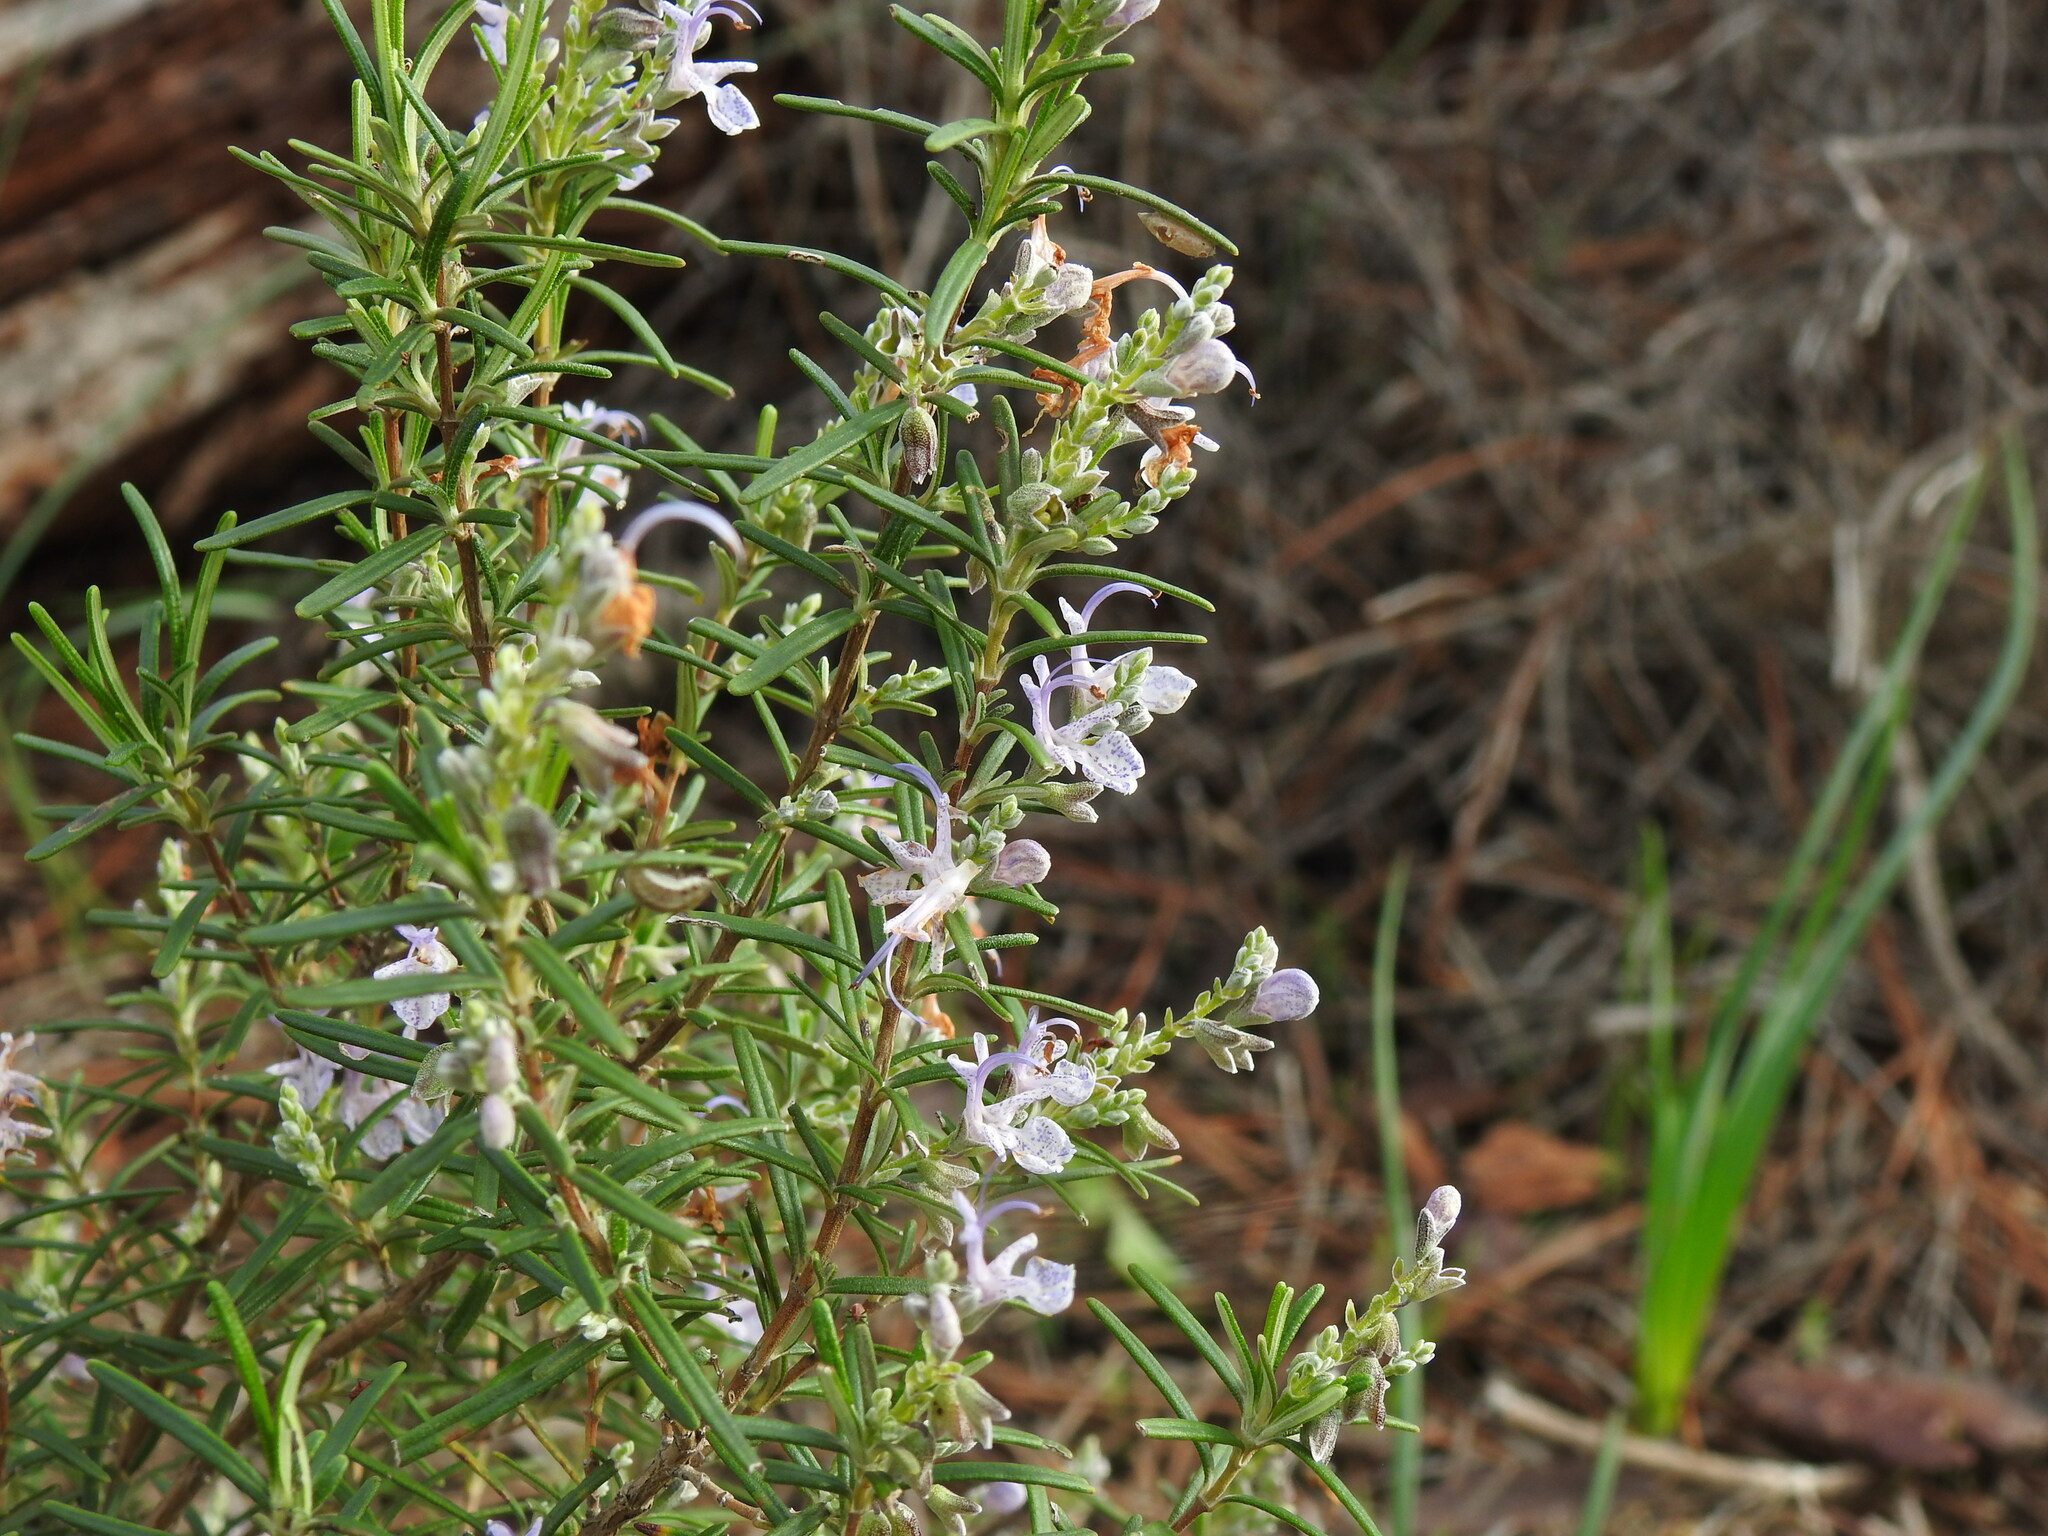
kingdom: Plantae
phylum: Tracheophyta
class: Magnoliopsida
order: Lamiales
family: Lamiaceae
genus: Salvia
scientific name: Salvia rosmarinus
